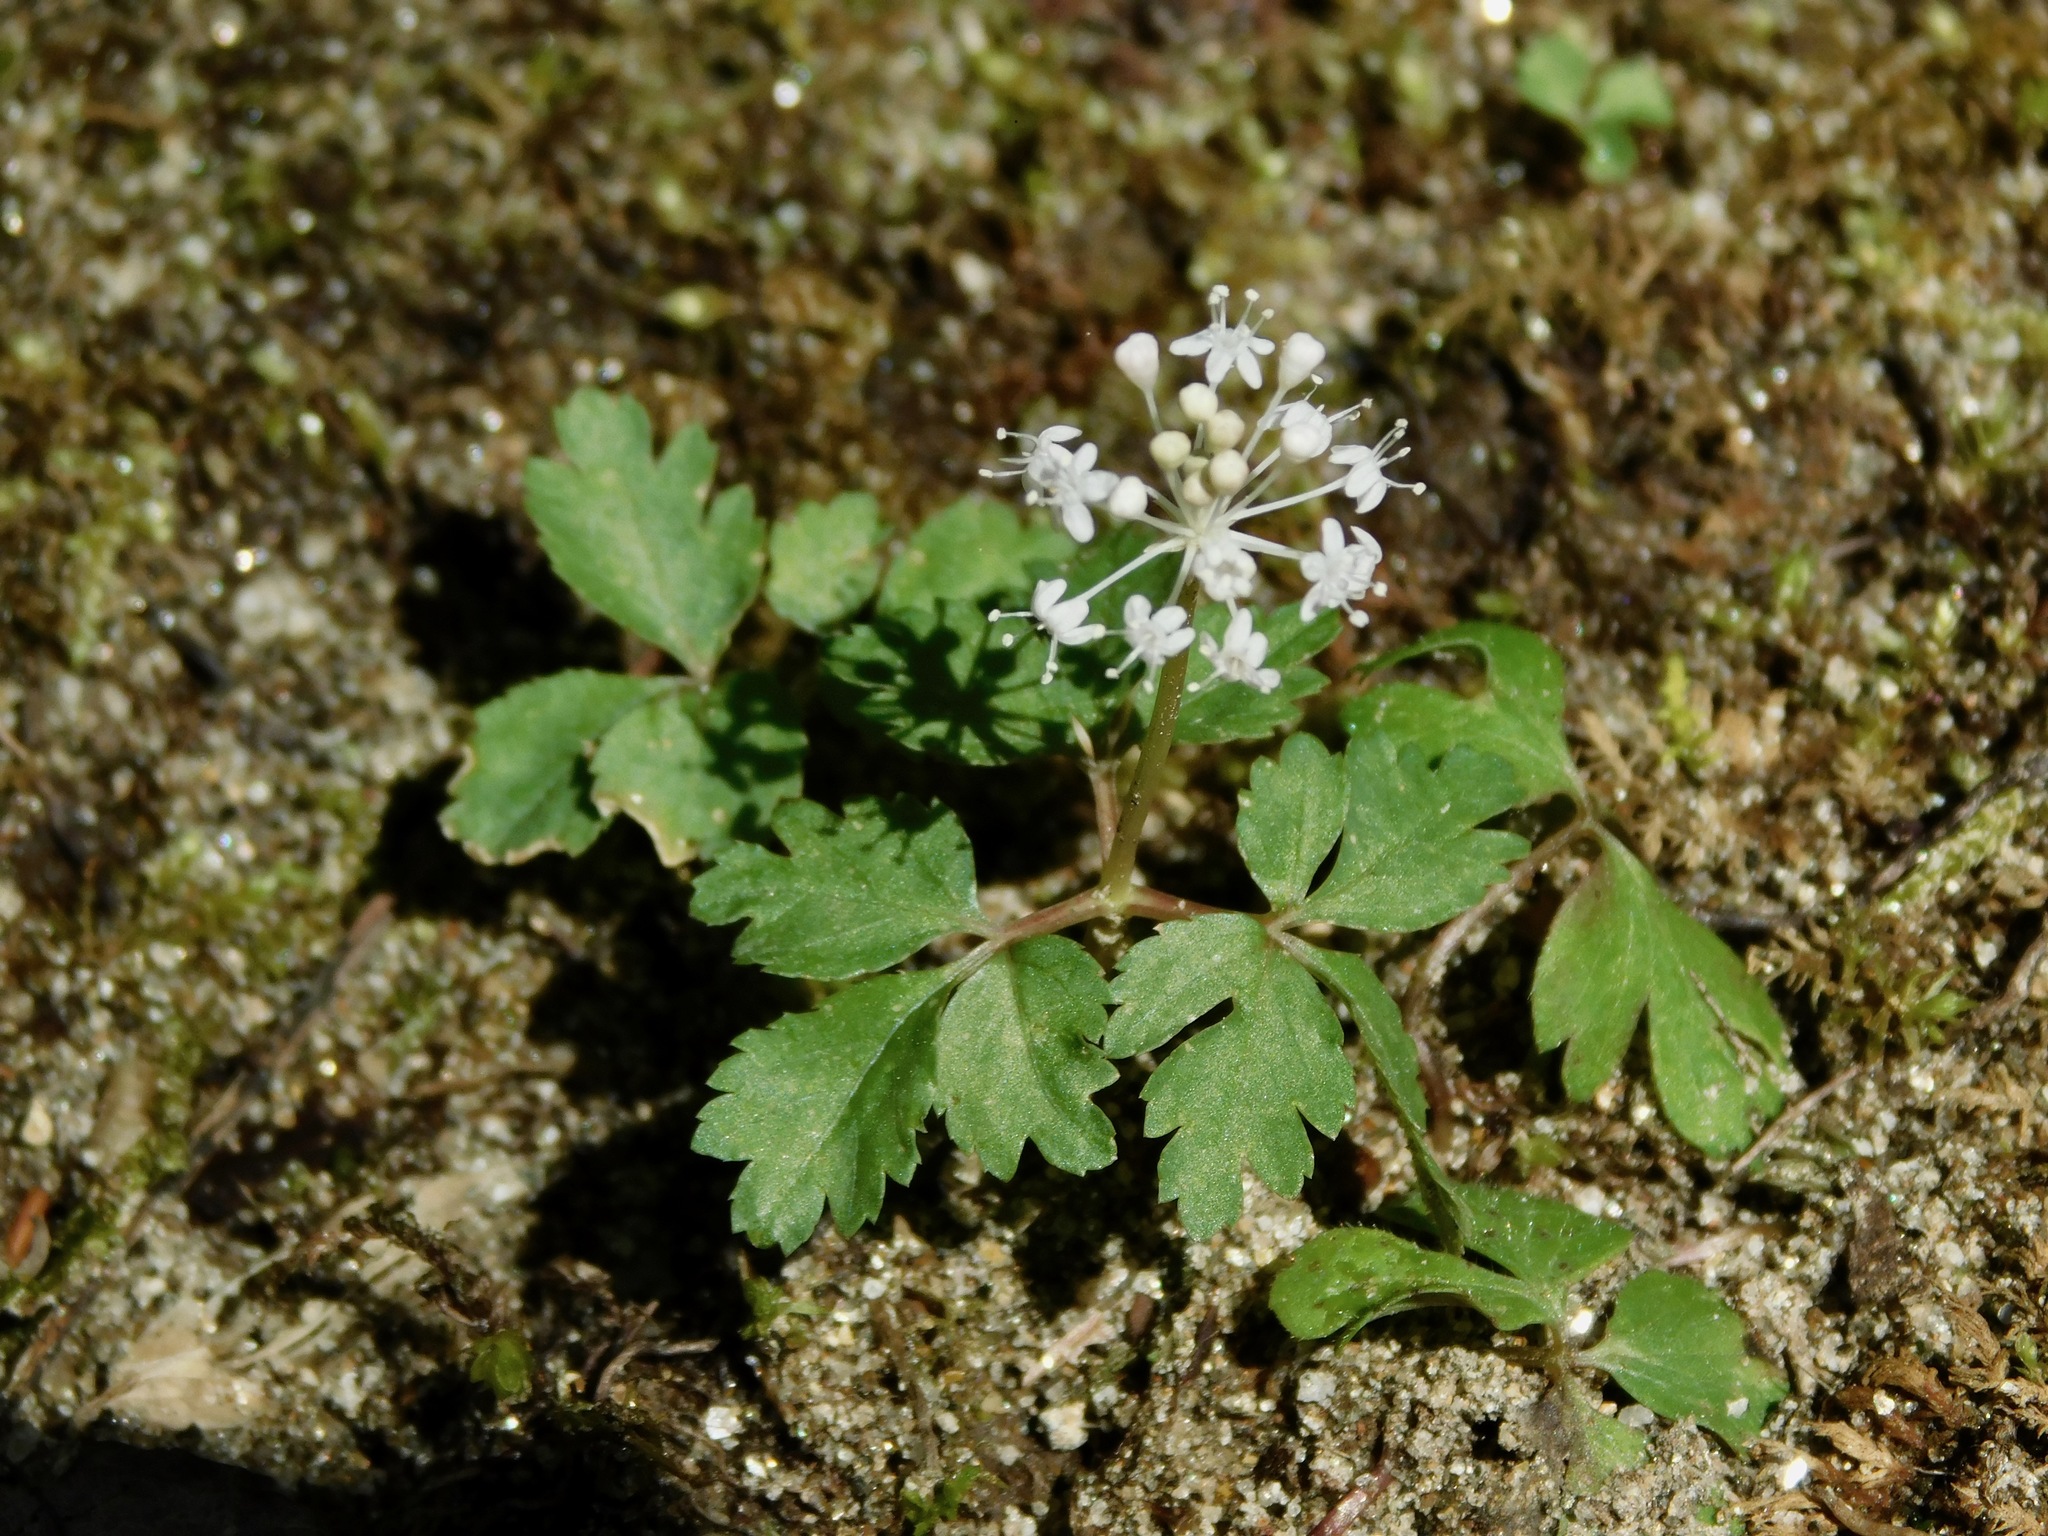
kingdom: Plantae
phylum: Tracheophyta
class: Magnoliopsida
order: Apiales
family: Araliaceae
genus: Panax
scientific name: Panax trifolius
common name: Dwarf ginseng
